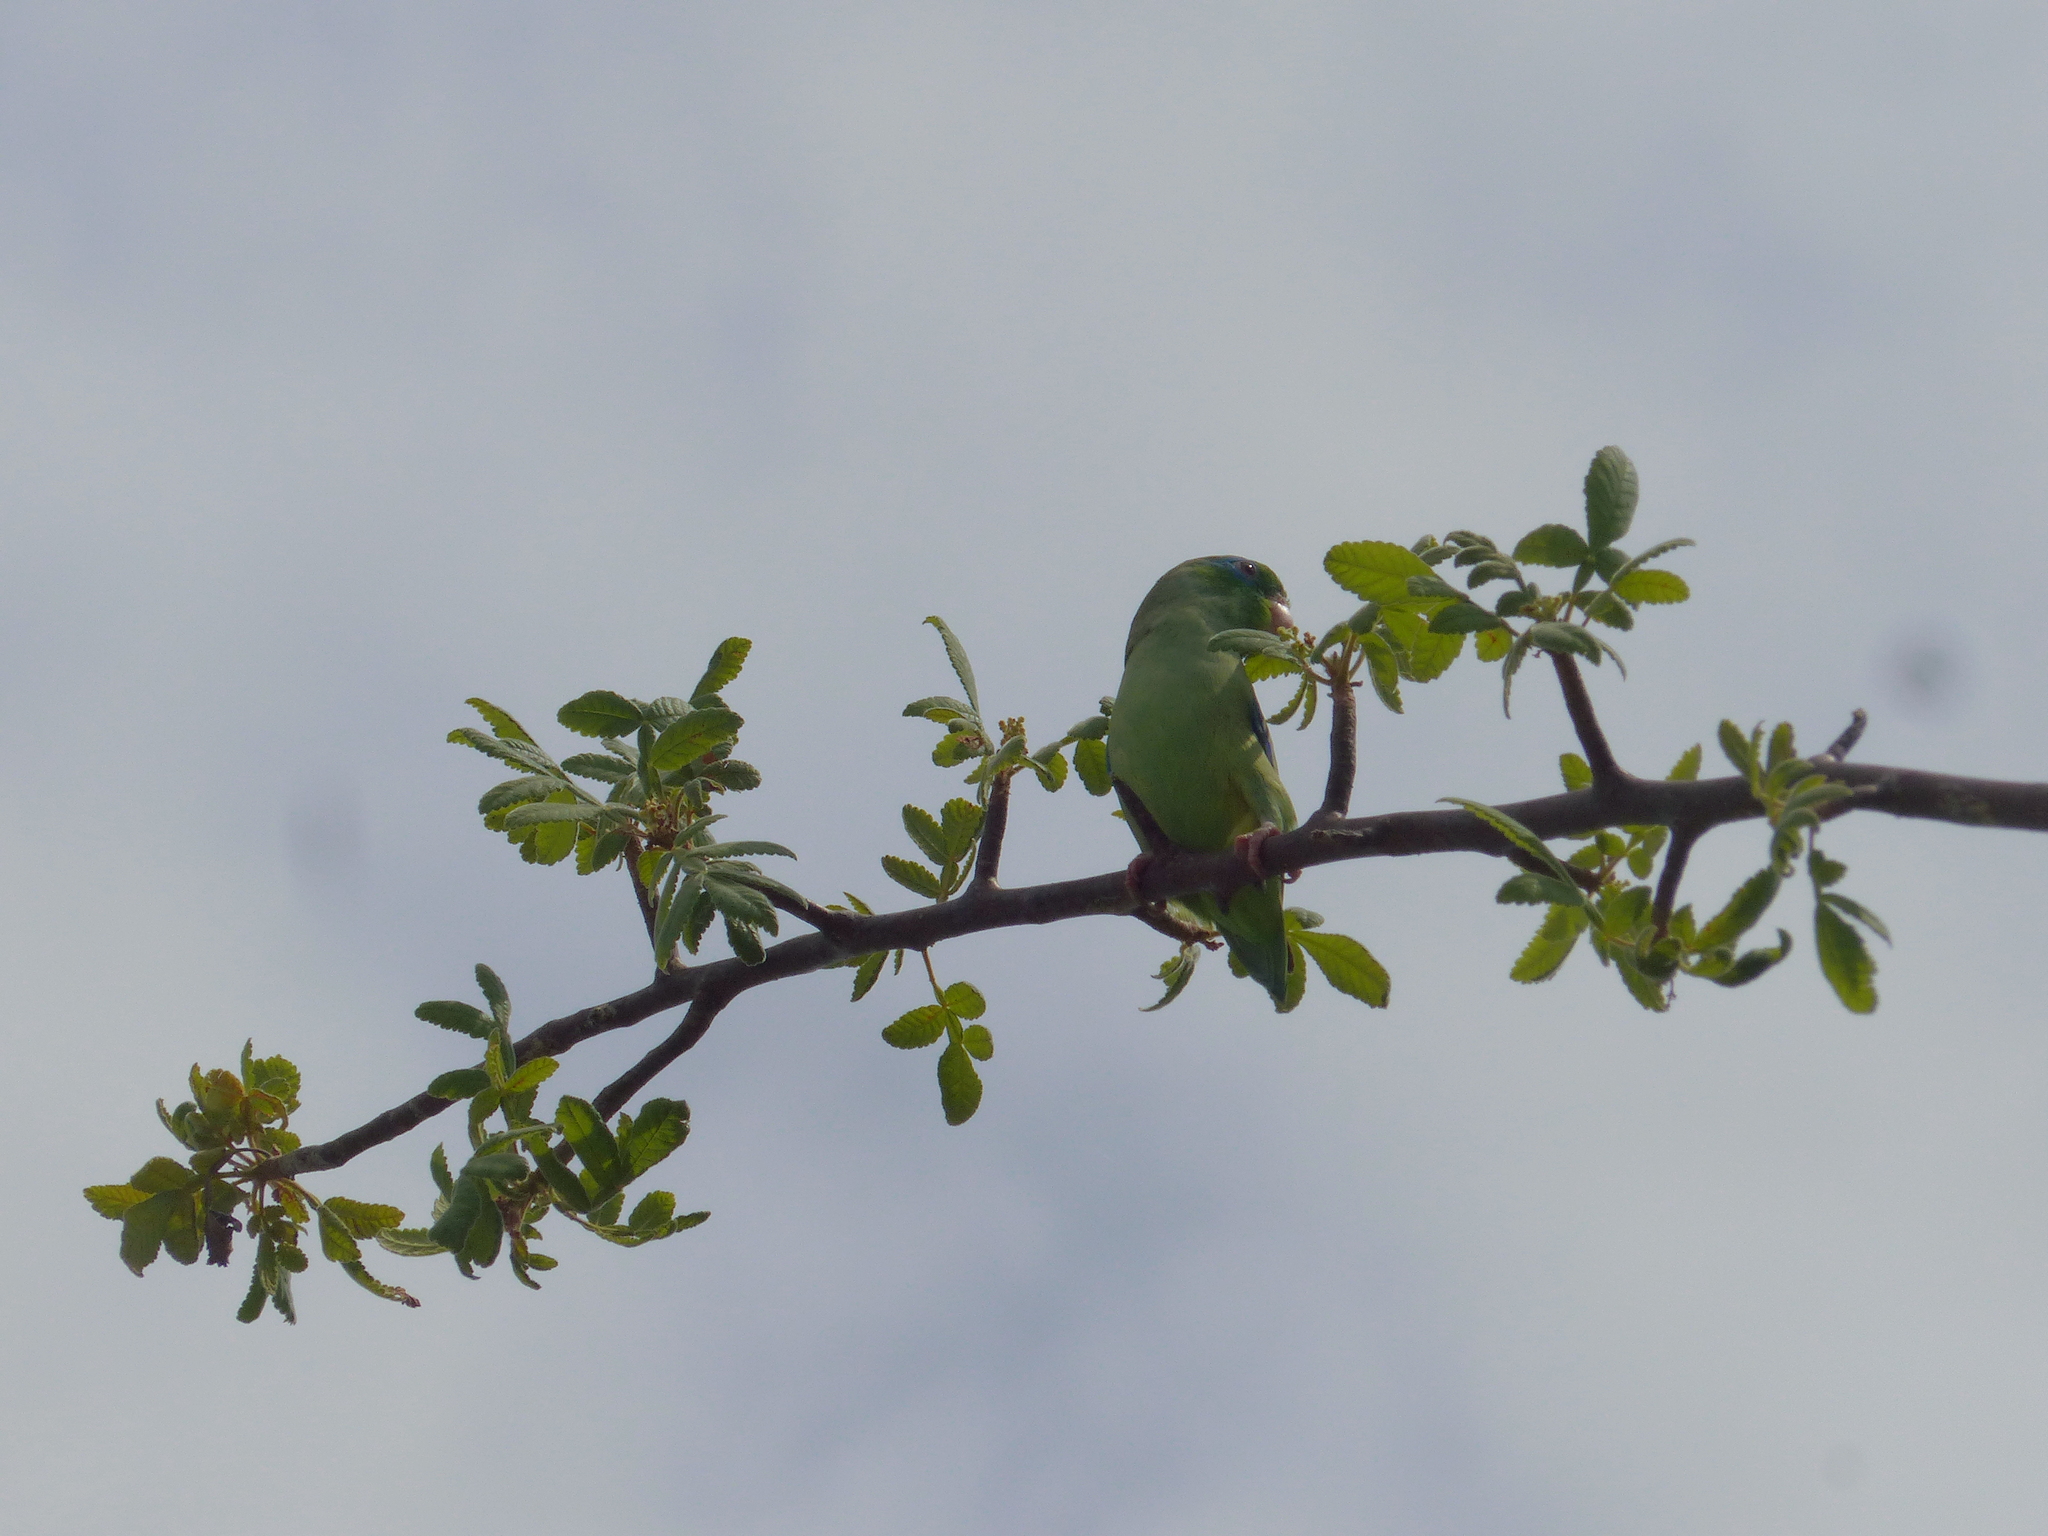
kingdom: Animalia
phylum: Chordata
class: Aves
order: Psittaciformes
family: Psittacidae
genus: Forpus
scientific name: Forpus conspicillatus
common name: Spectacled parrotlet
